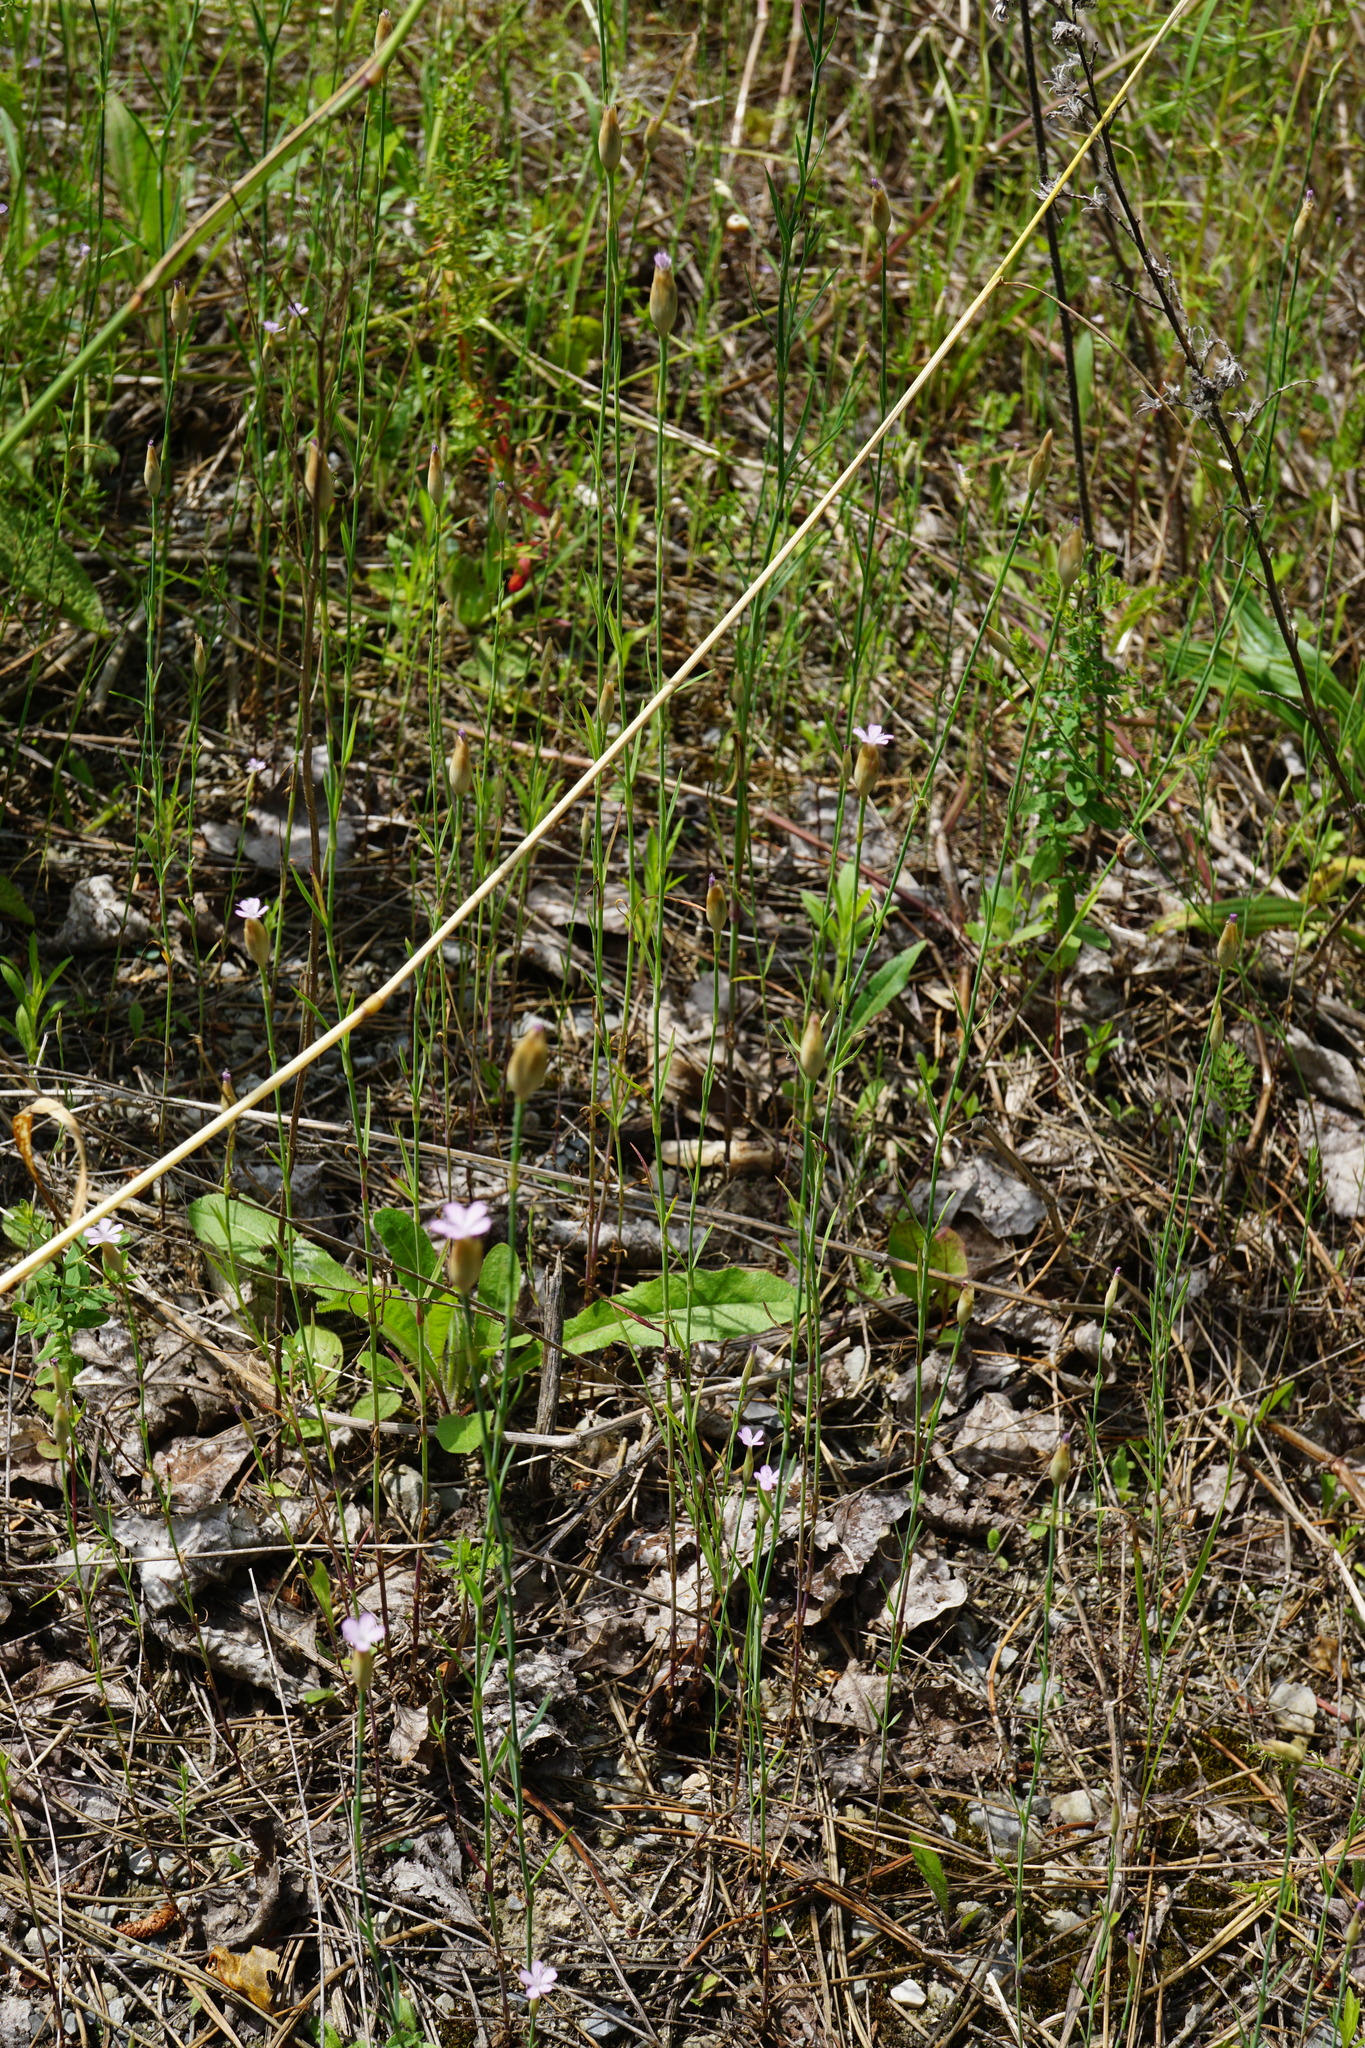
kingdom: Plantae
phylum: Tracheophyta
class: Magnoliopsida
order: Caryophyllales
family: Caryophyllaceae
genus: Petrorhagia
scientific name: Petrorhagia prolifera
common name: Proliferous pink
